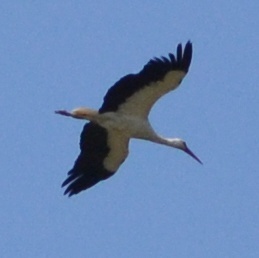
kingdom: Animalia
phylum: Chordata
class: Aves
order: Ciconiiformes
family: Ciconiidae
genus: Ciconia
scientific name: Ciconia ciconia
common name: White stork
